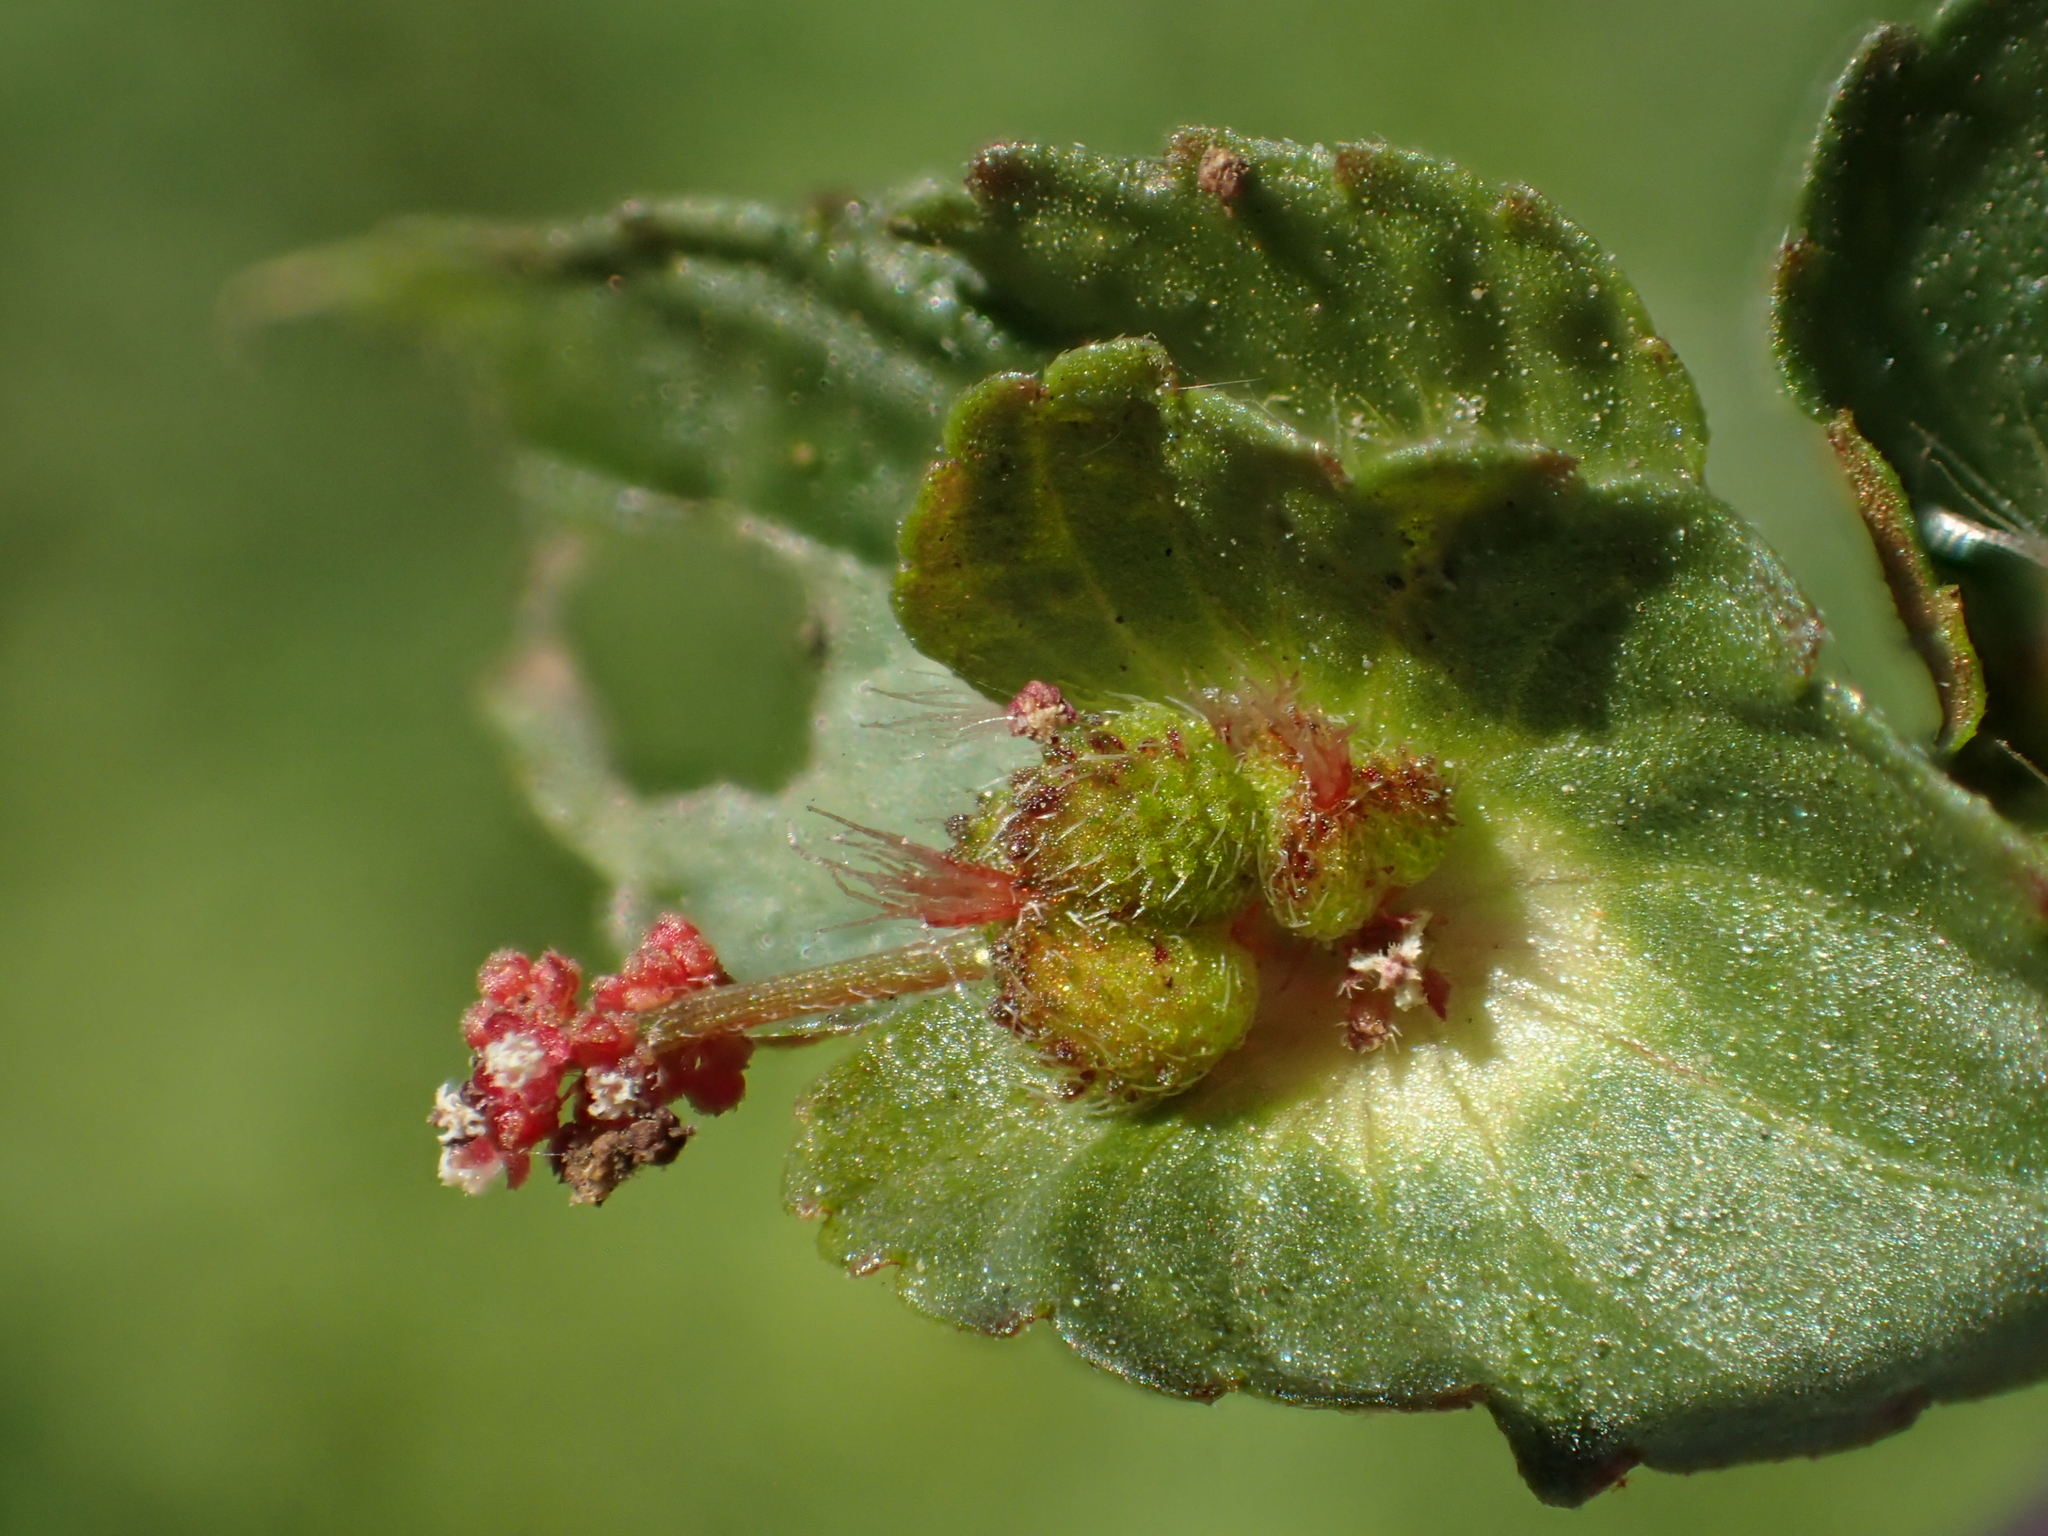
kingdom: Plantae
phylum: Tracheophyta
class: Magnoliopsida
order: Malpighiales
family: Euphorbiaceae
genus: Acalypha
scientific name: Acalypha australis
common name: Asian copperleaf
